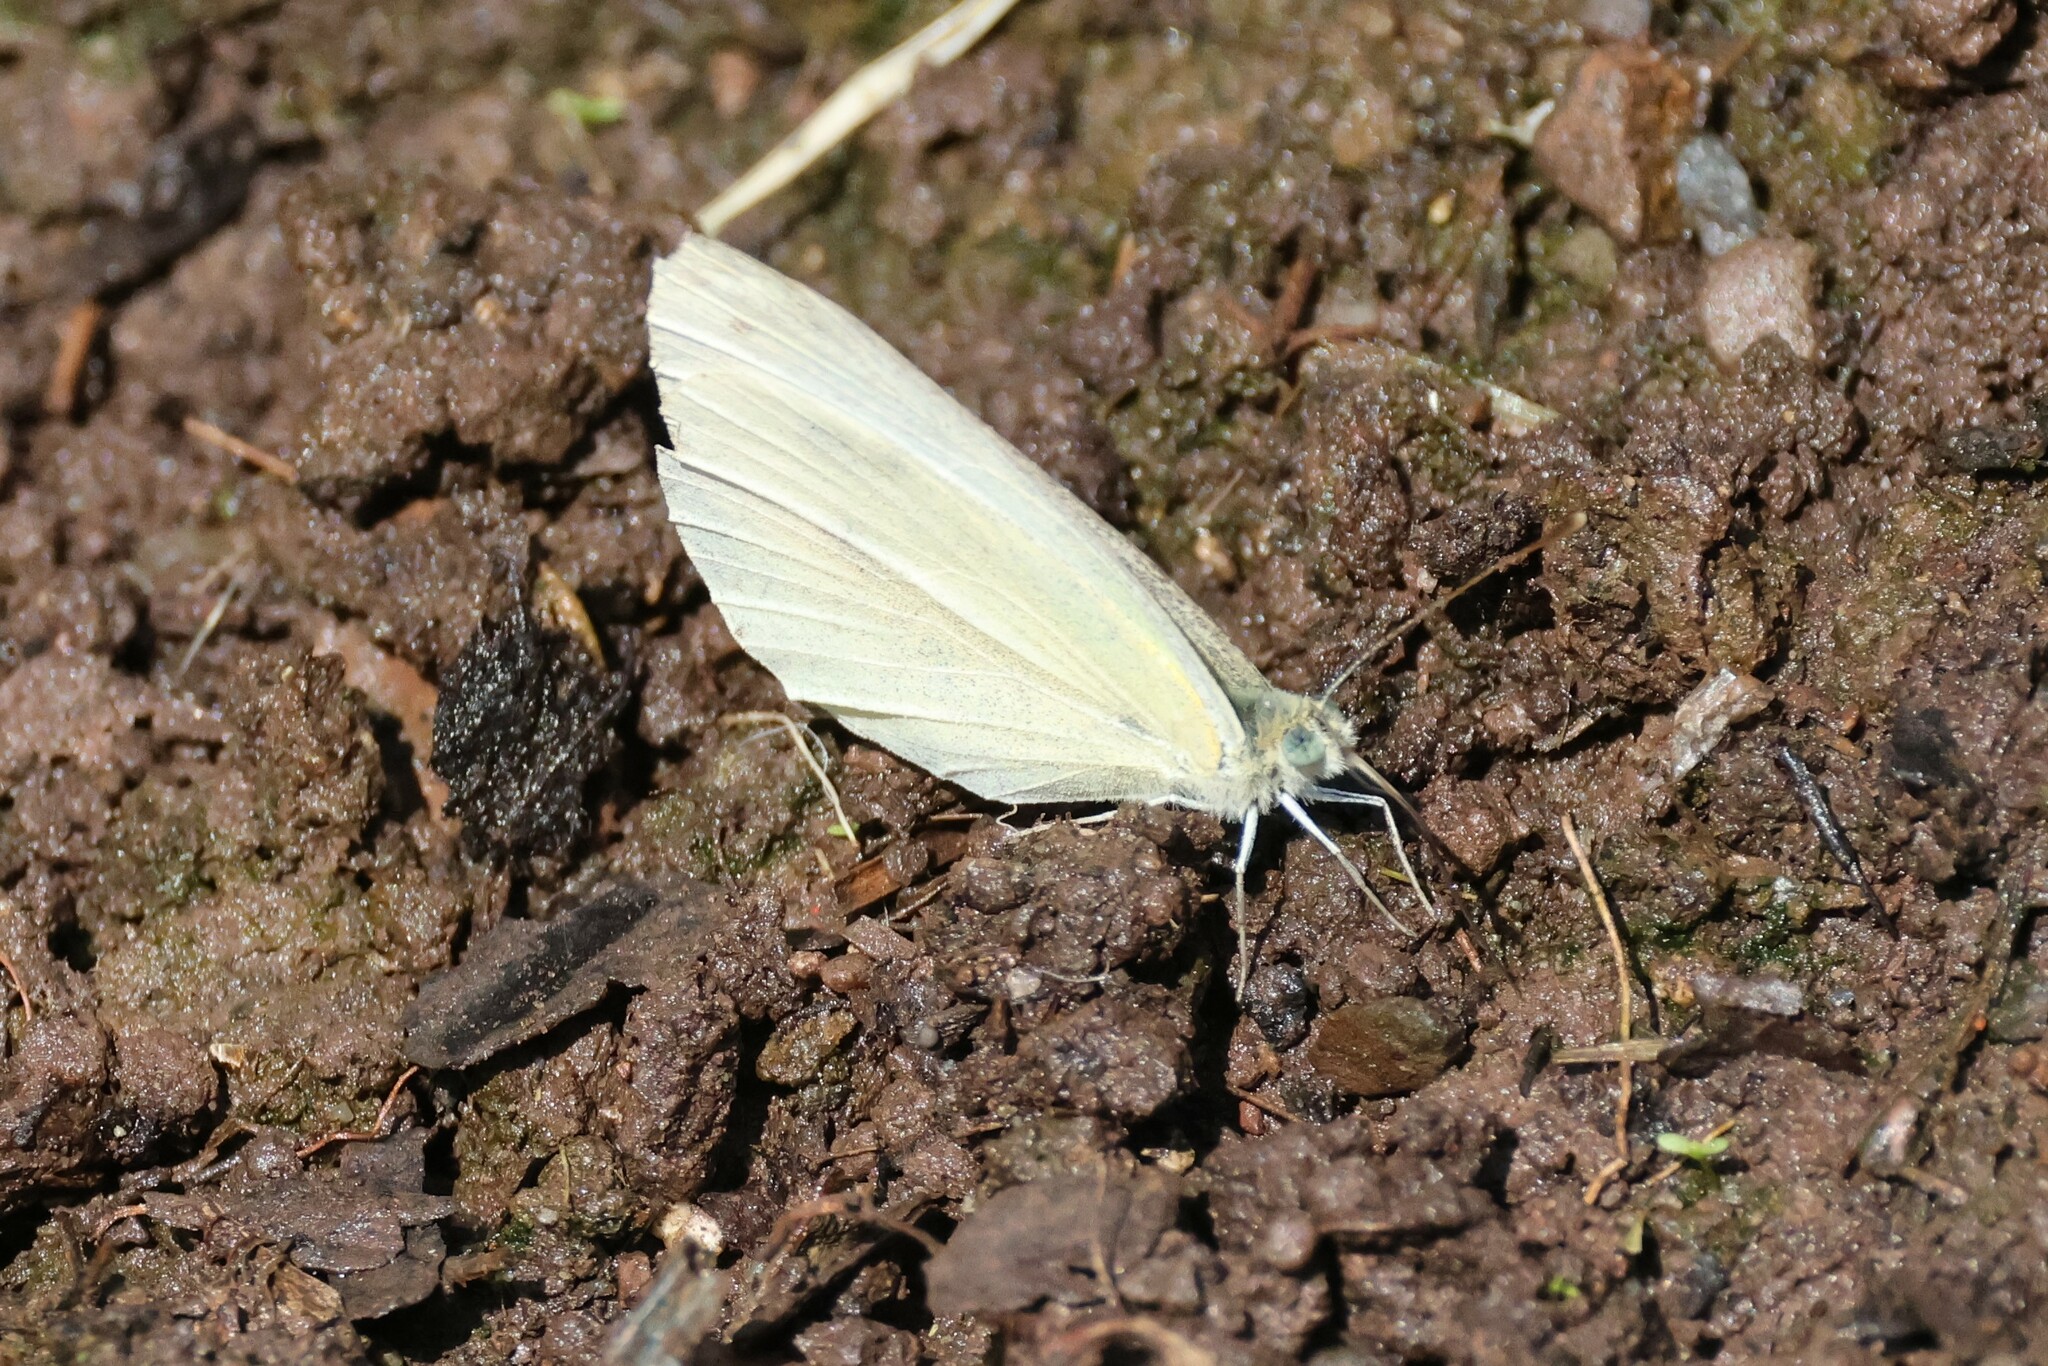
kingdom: Animalia
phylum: Arthropoda
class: Insecta
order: Lepidoptera
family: Pieridae
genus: Pieris
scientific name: Pieris rapae
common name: Small white
